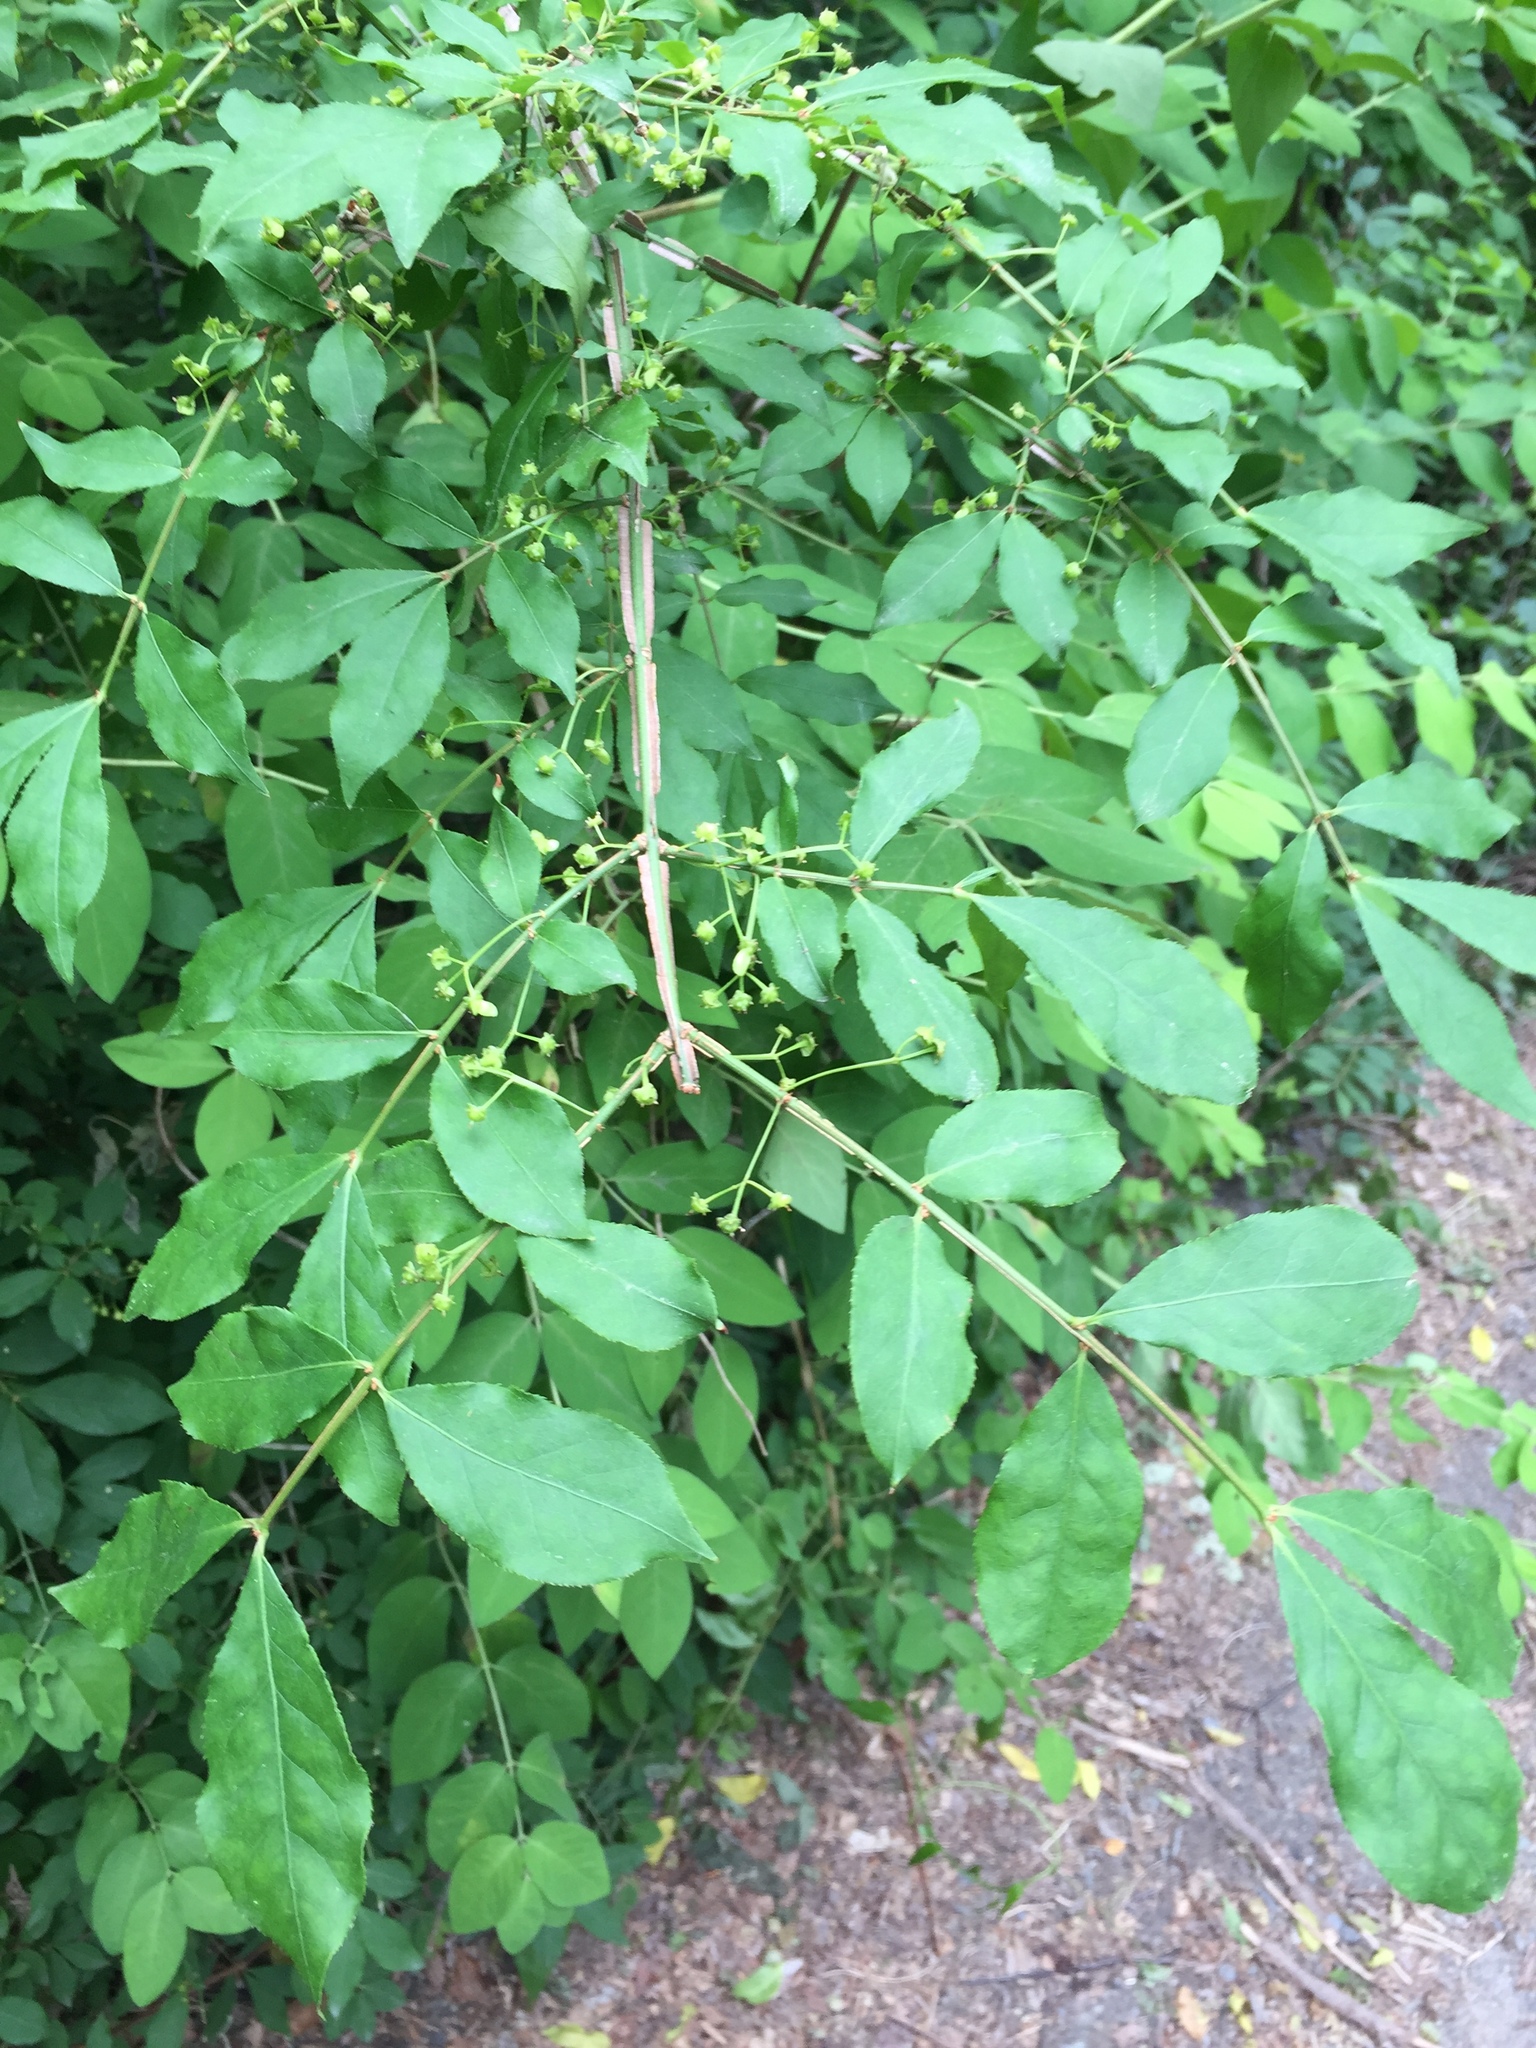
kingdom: Plantae
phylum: Tracheophyta
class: Magnoliopsida
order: Celastrales
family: Celastraceae
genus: Euonymus
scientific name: Euonymus alatus
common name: Winged euonymus
